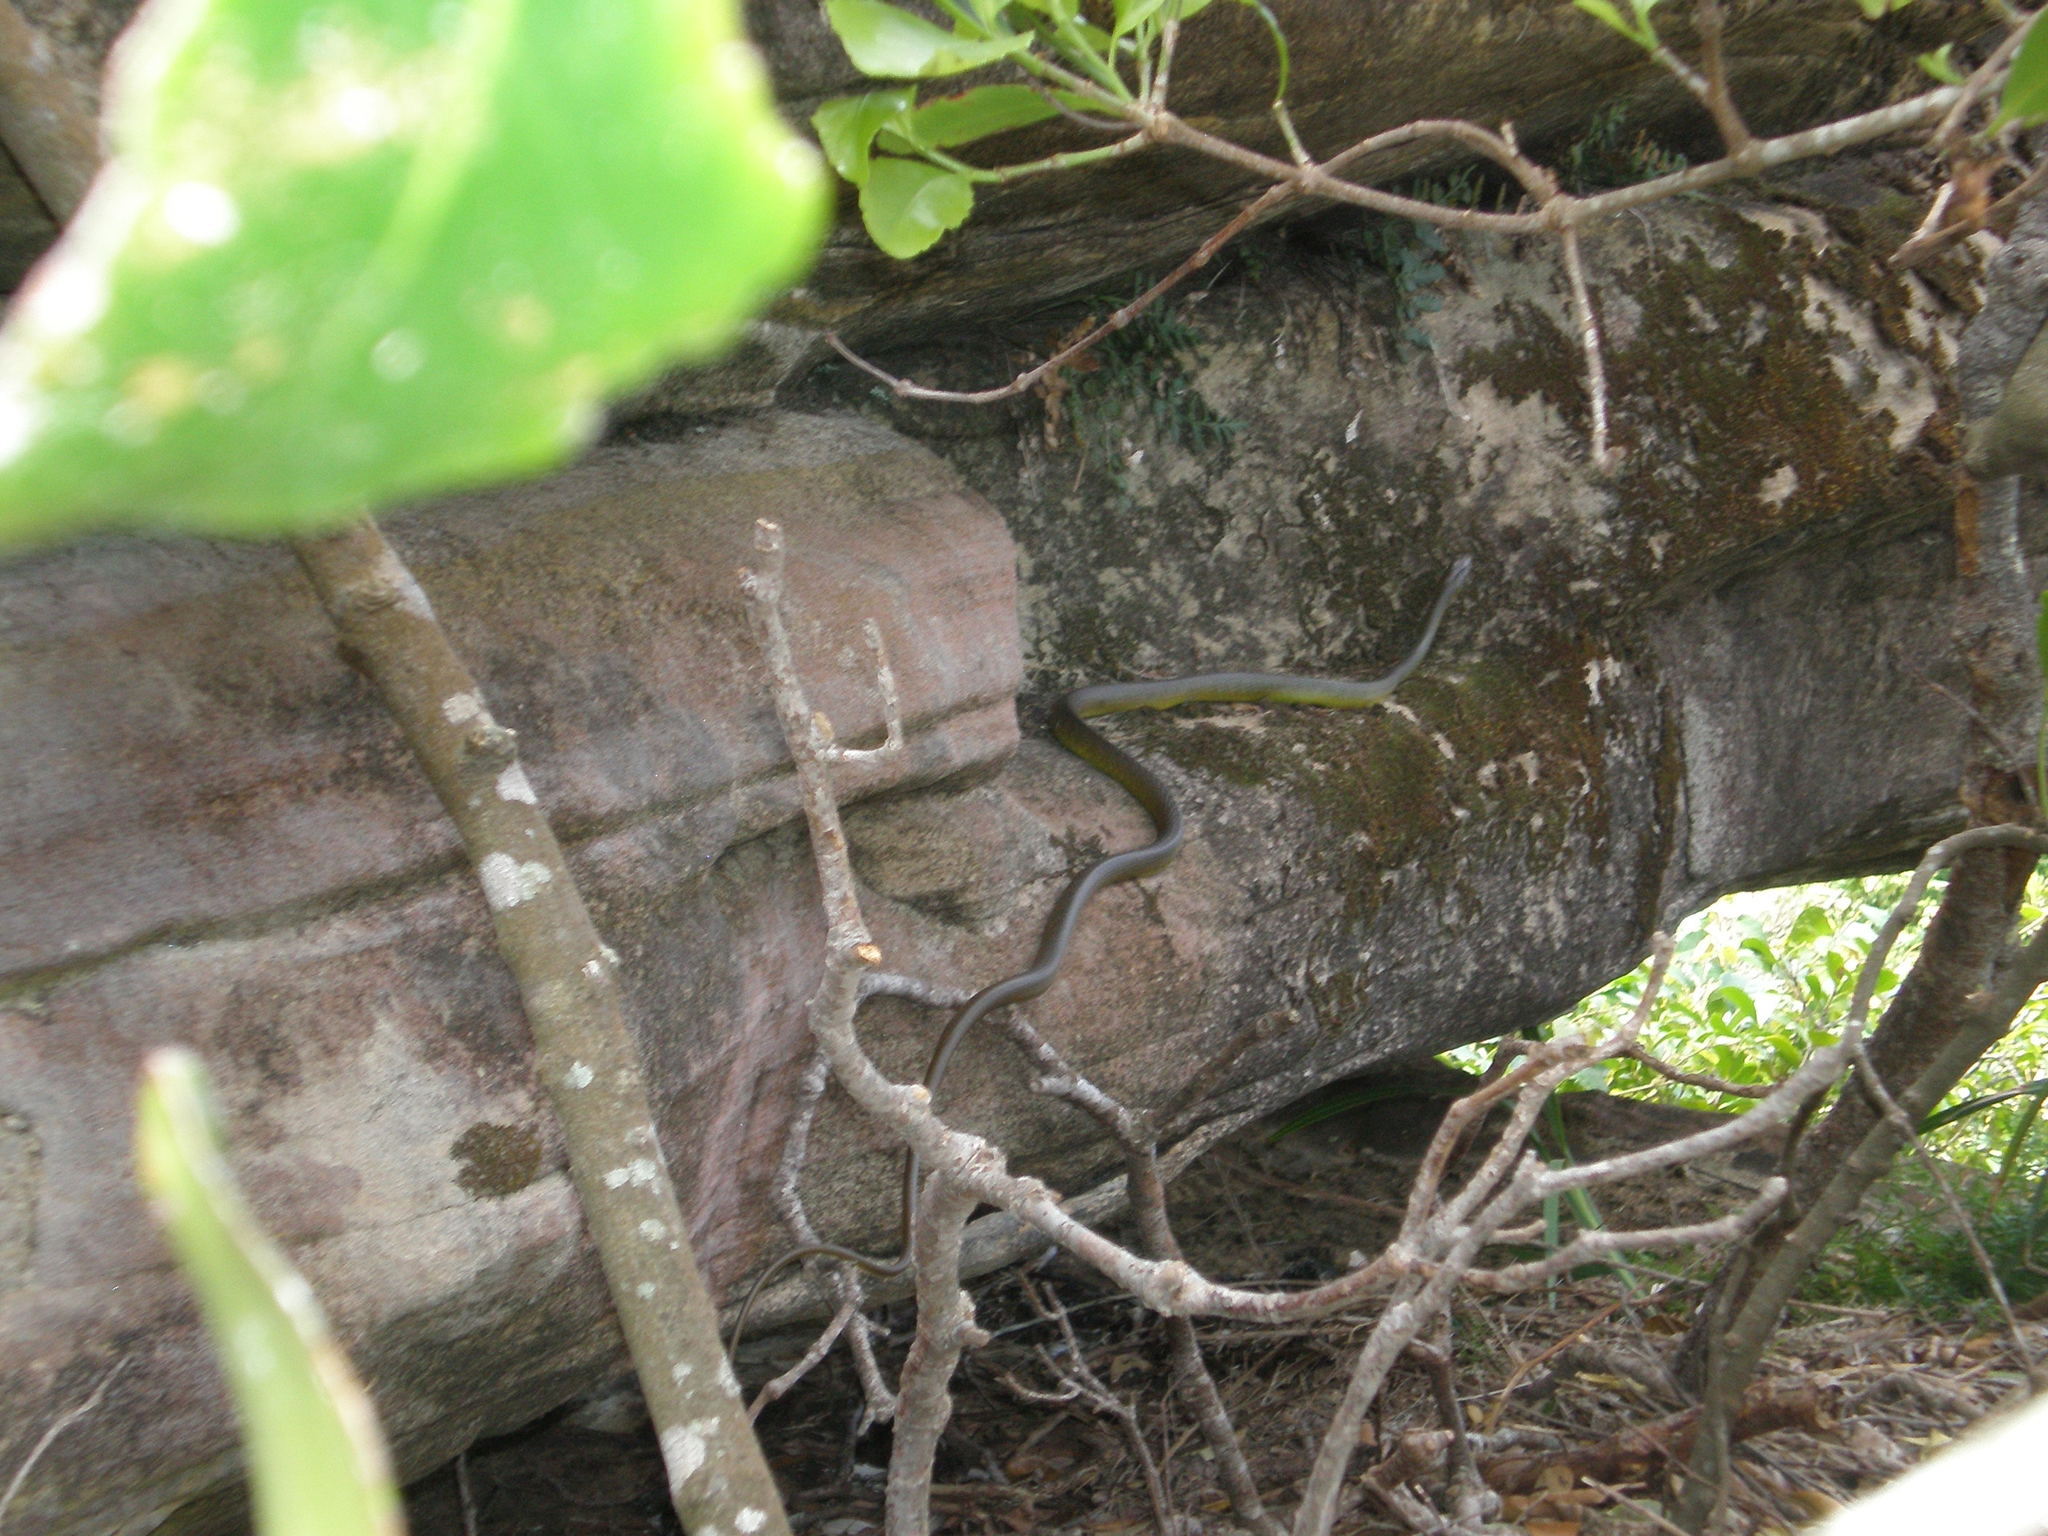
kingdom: Animalia
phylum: Chordata
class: Squamata
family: Colubridae
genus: Dendrelaphis
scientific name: Dendrelaphis punctulatus
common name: Common tree snake
